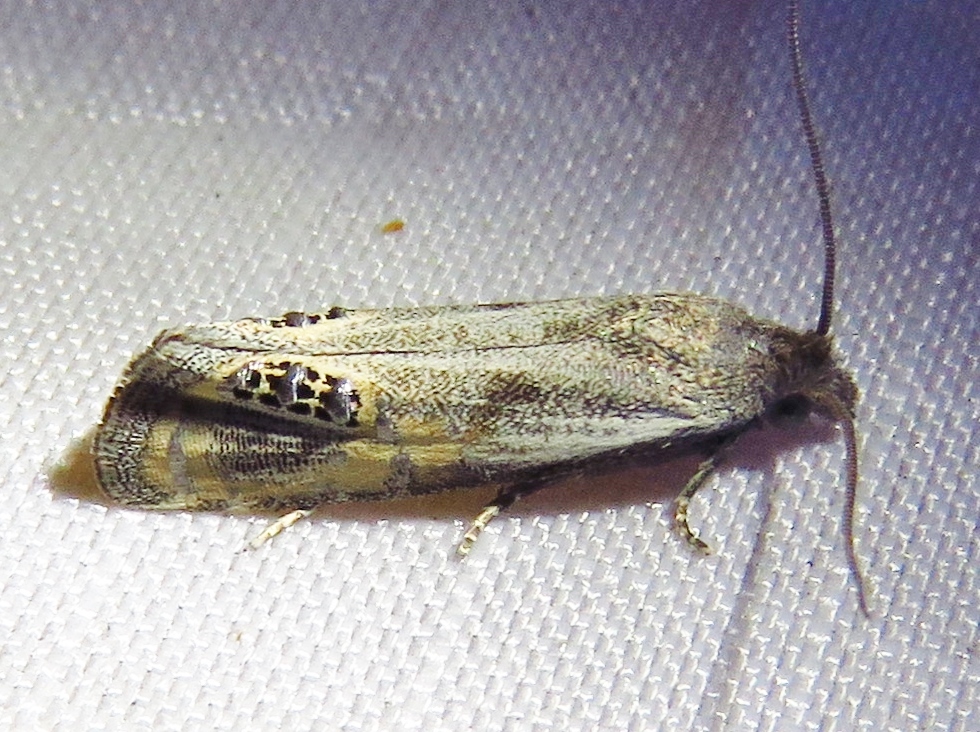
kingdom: Animalia
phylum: Arthropoda
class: Insecta
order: Lepidoptera
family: Tortricidae
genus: Pelochrista
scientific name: Pelochrista scintillana
